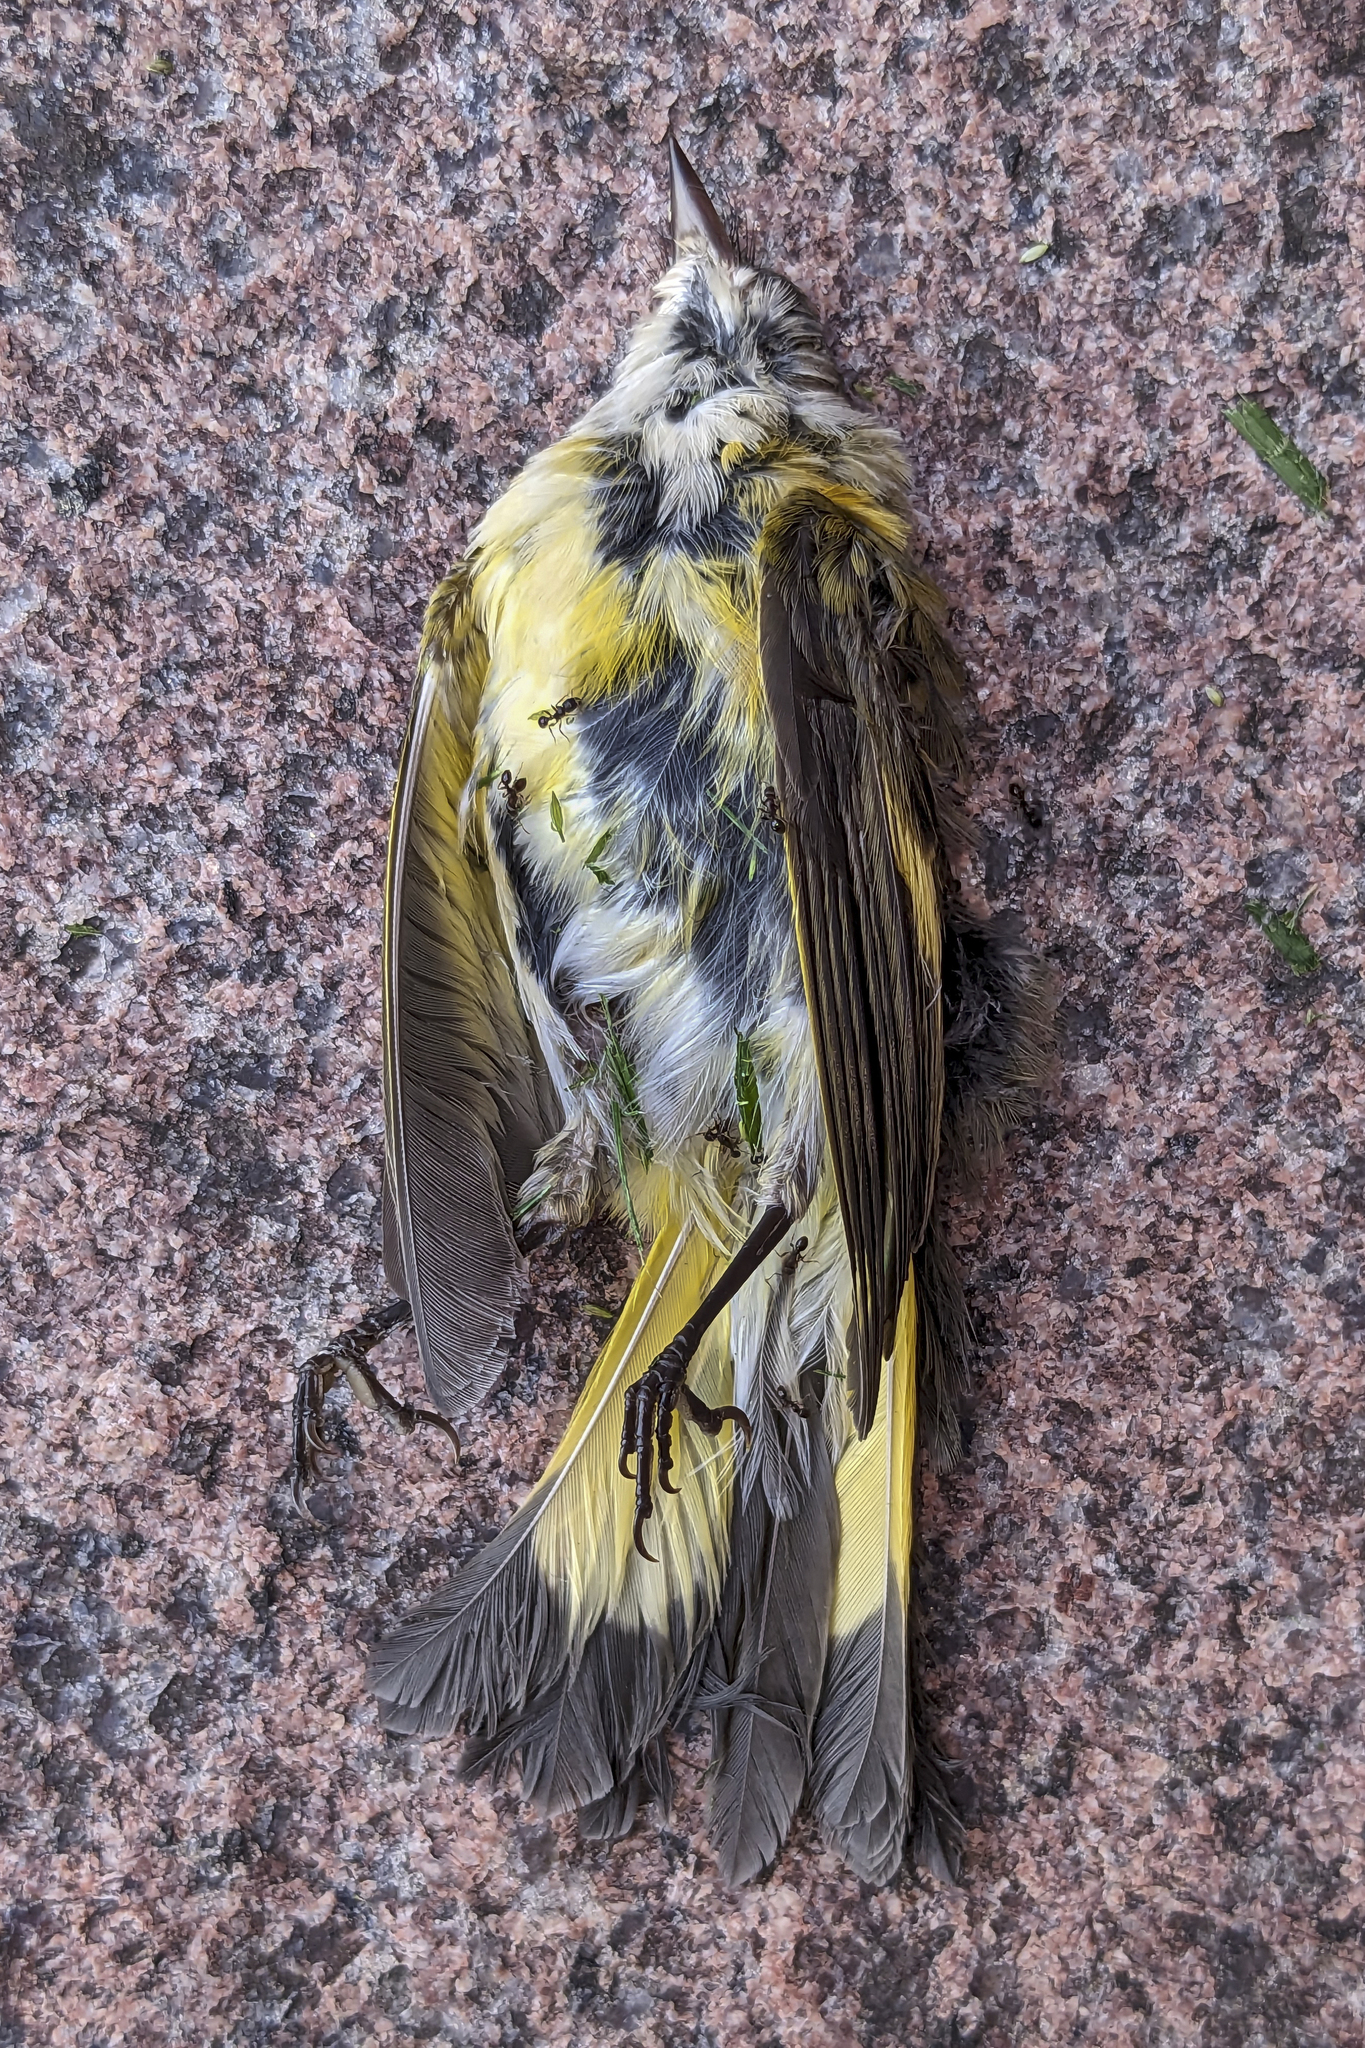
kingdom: Animalia
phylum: Chordata
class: Aves
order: Passeriformes
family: Parulidae
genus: Setophaga
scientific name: Setophaga ruticilla
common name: American redstart
